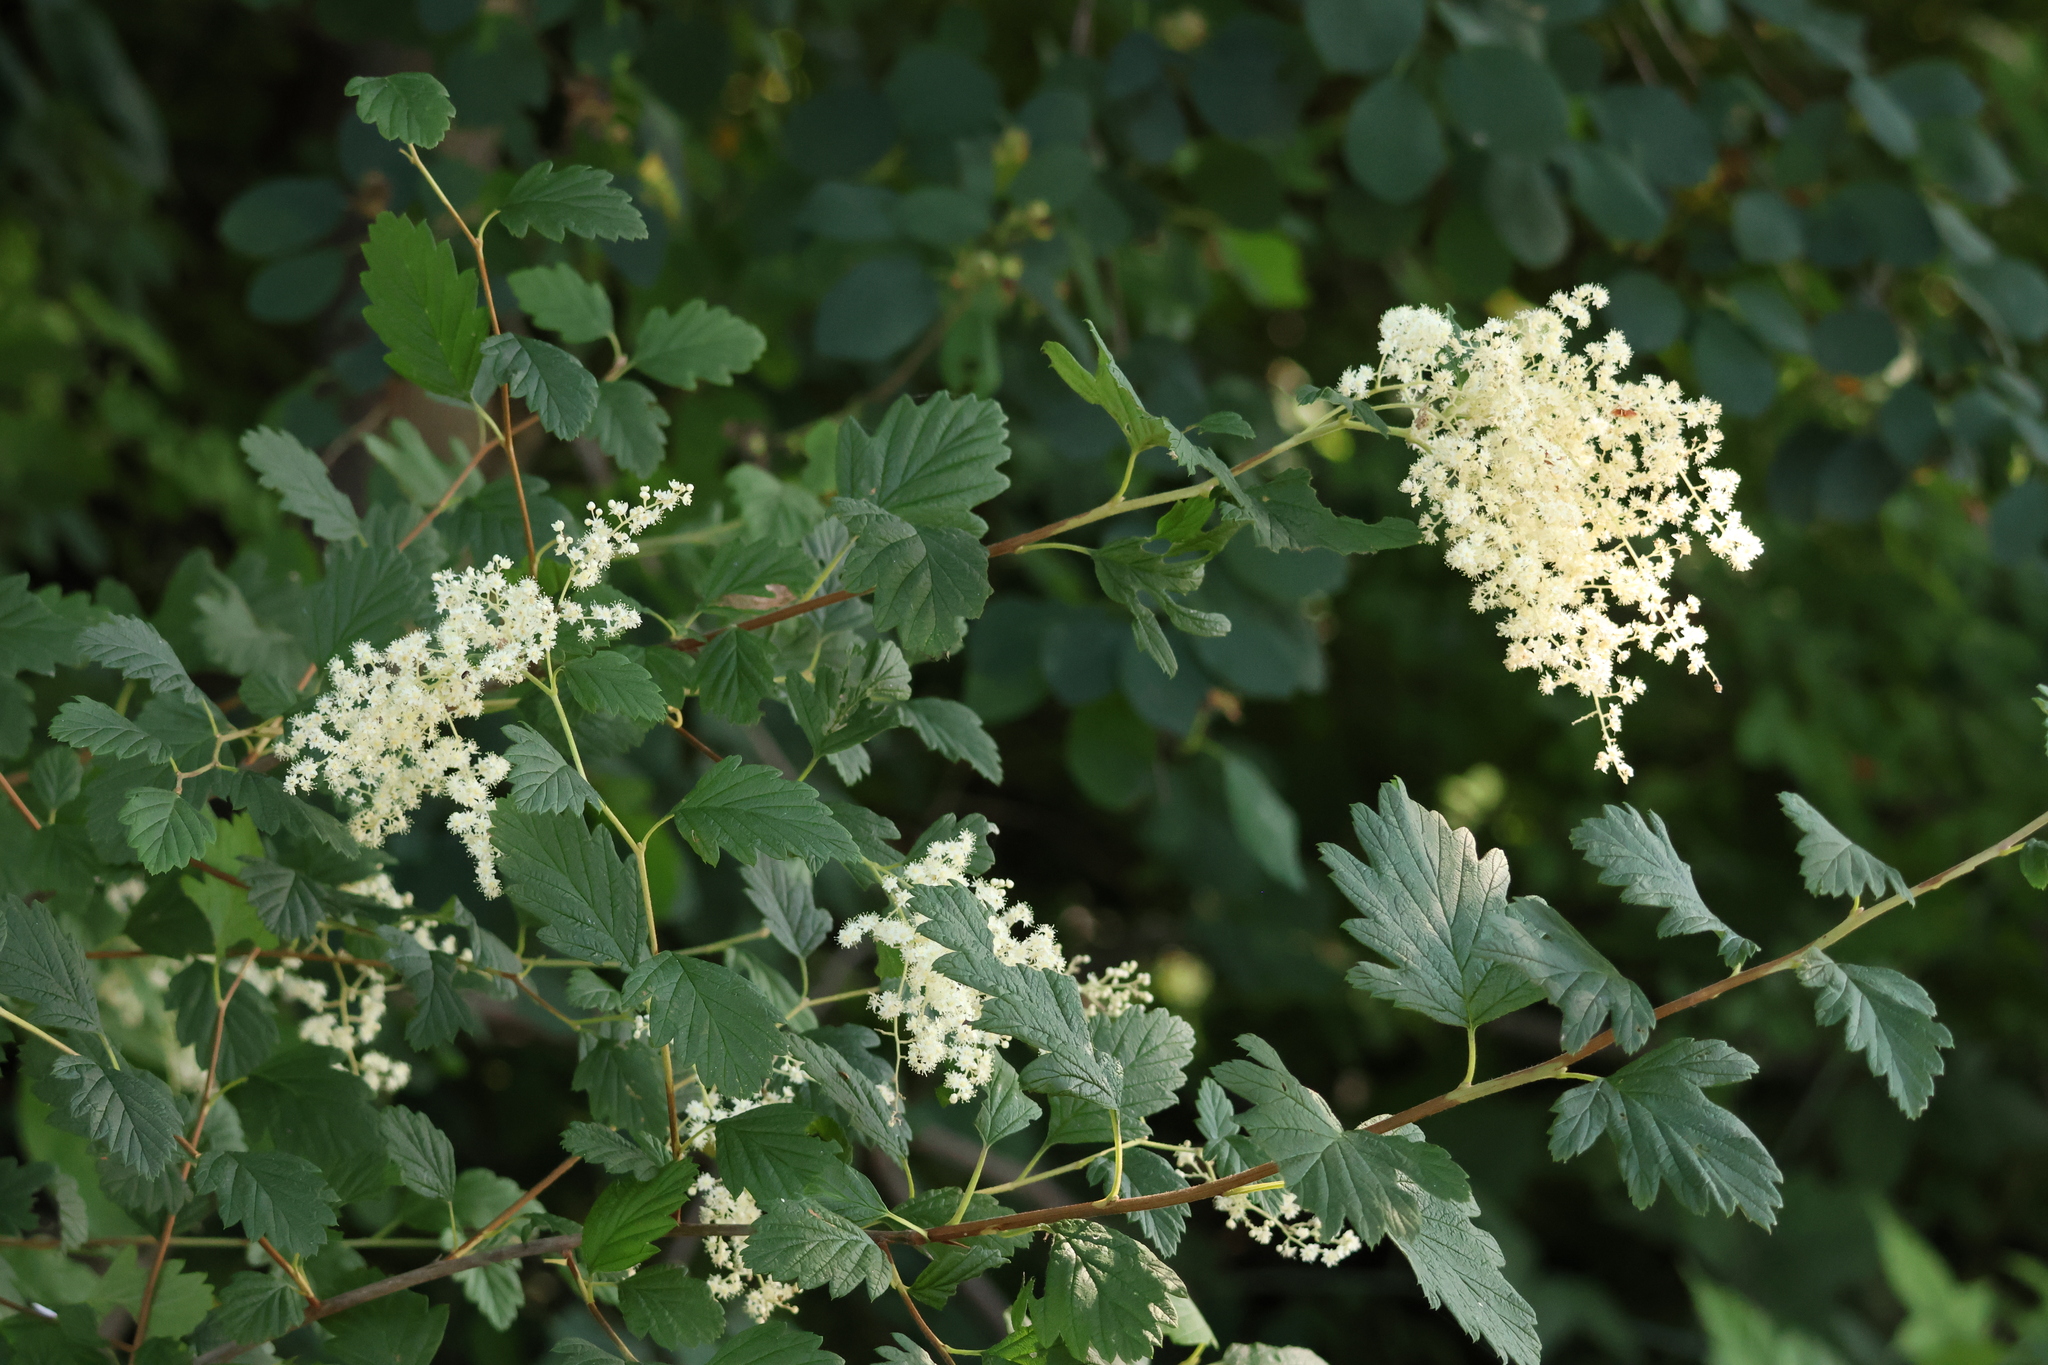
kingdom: Plantae
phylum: Tracheophyta
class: Magnoliopsida
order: Rosales
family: Rosaceae
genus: Holodiscus
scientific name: Holodiscus discolor
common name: Oceanspray
